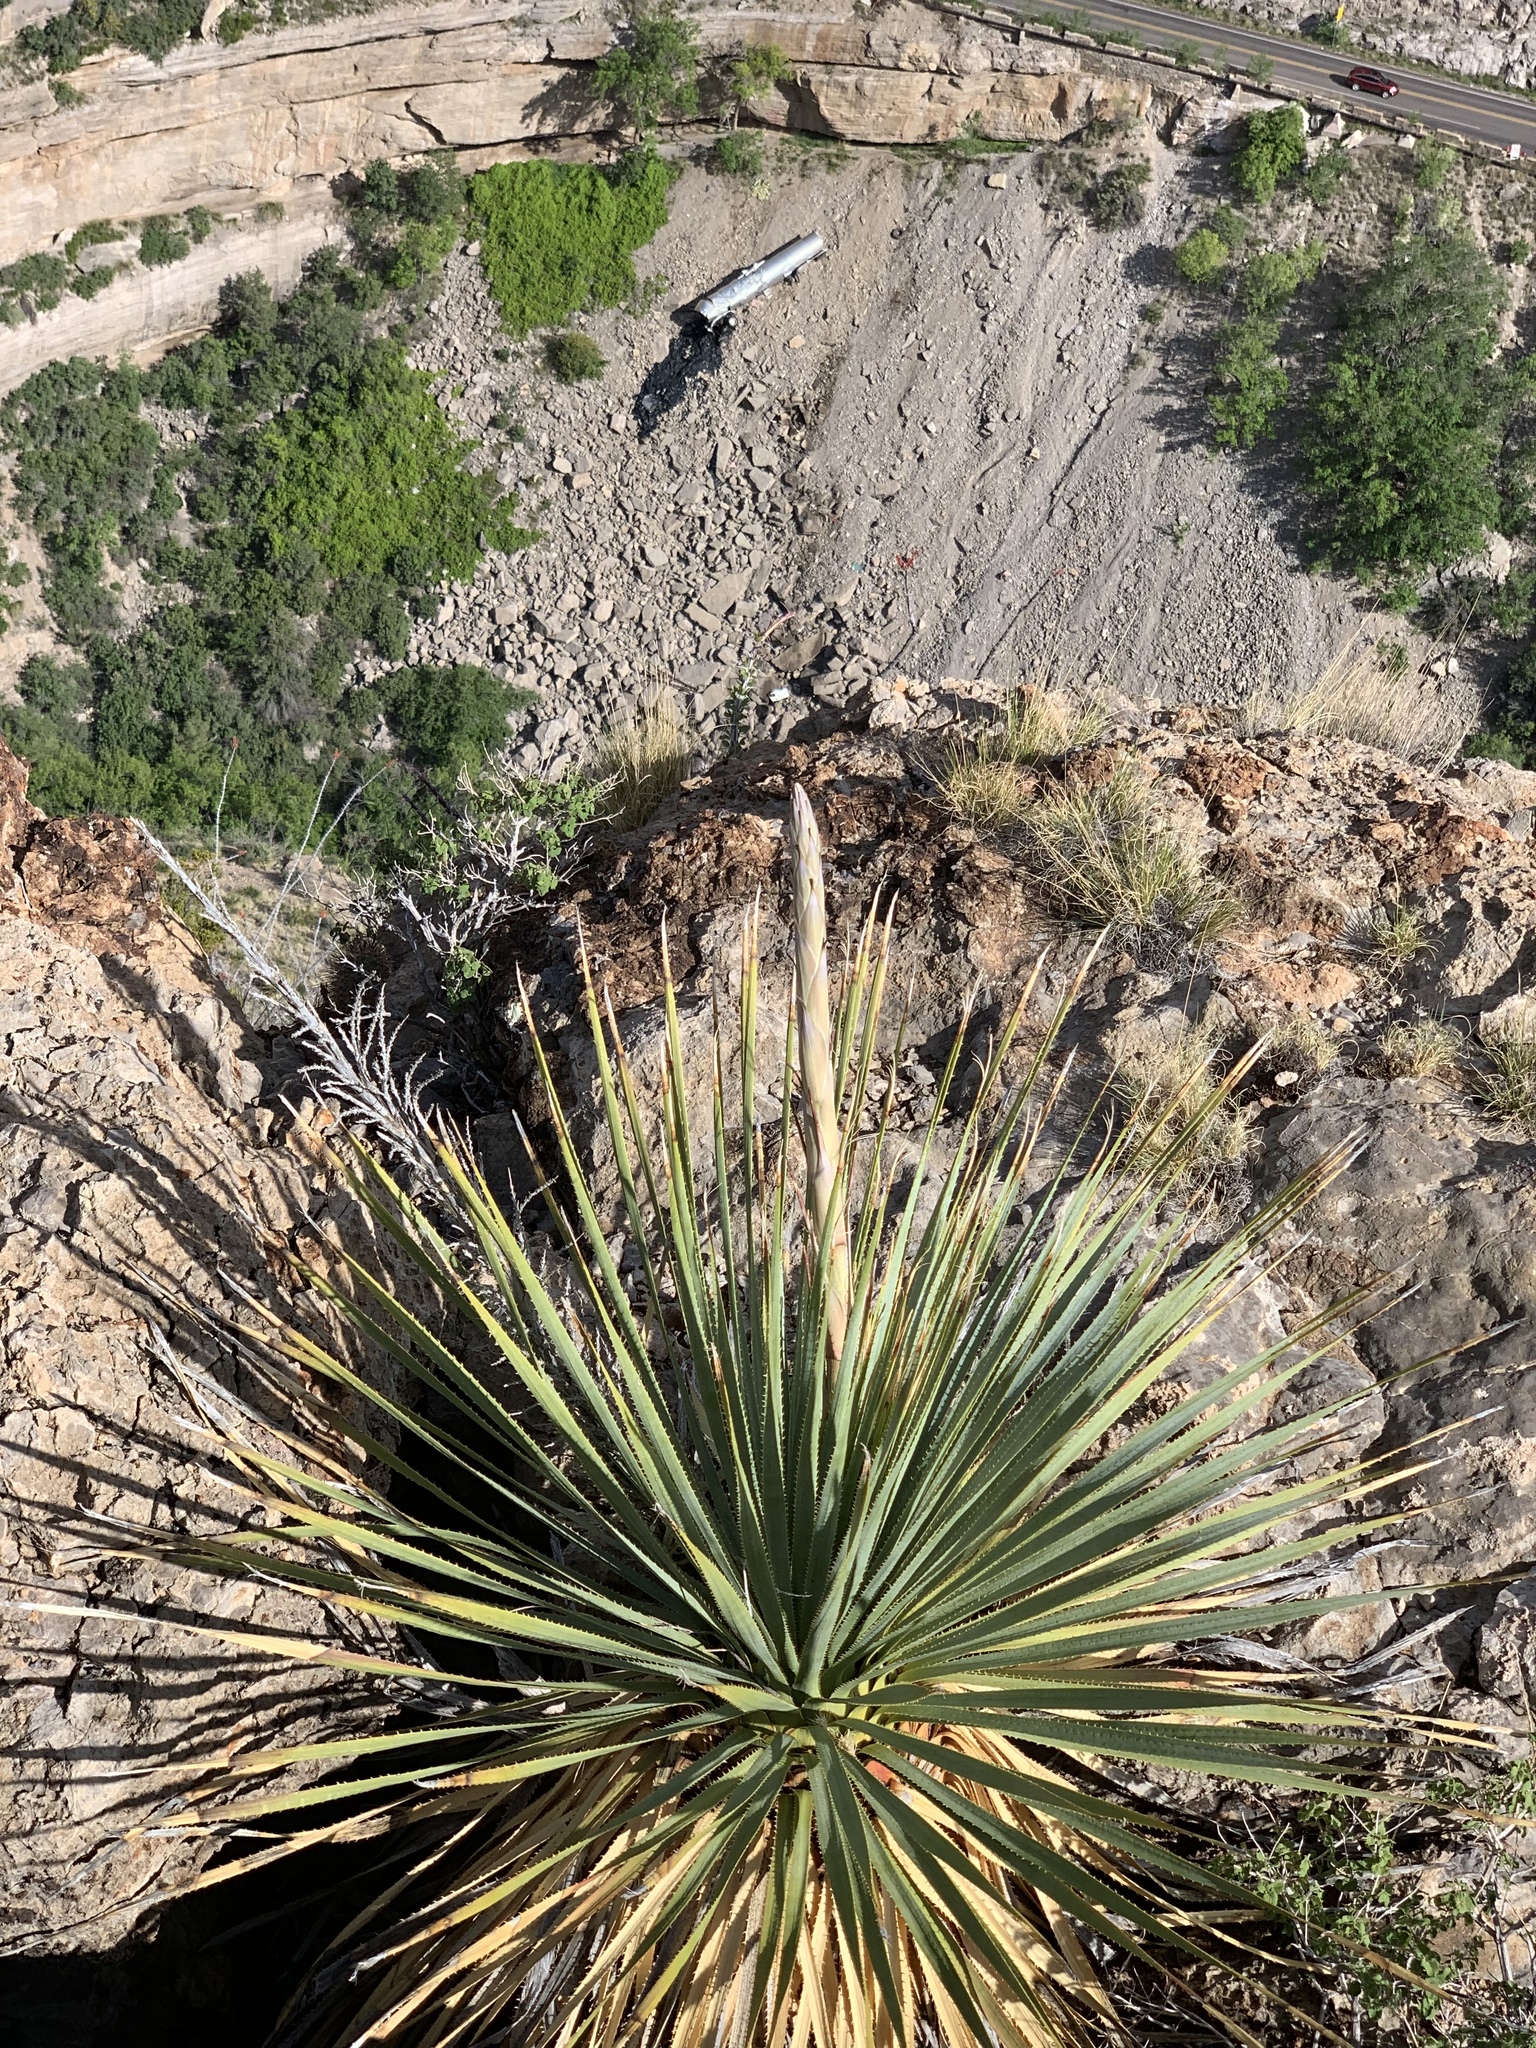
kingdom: Plantae
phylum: Tracheophyta
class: Liliopsida
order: Asparagales
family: Asparagaceae
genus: Dasylirion
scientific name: Dasylirion wheeleri
